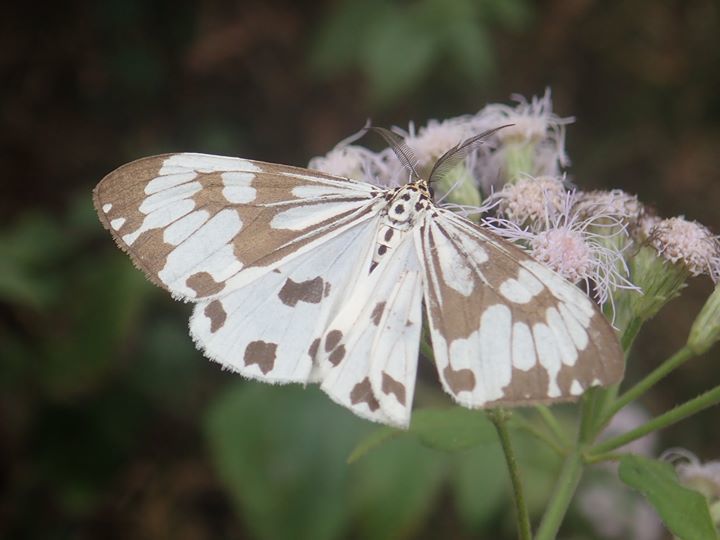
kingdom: Animalia
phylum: Arthropoda
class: Insecta
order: Lepidoptera
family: Erebidae
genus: Nyctemera
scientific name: Nyctemera adversata
